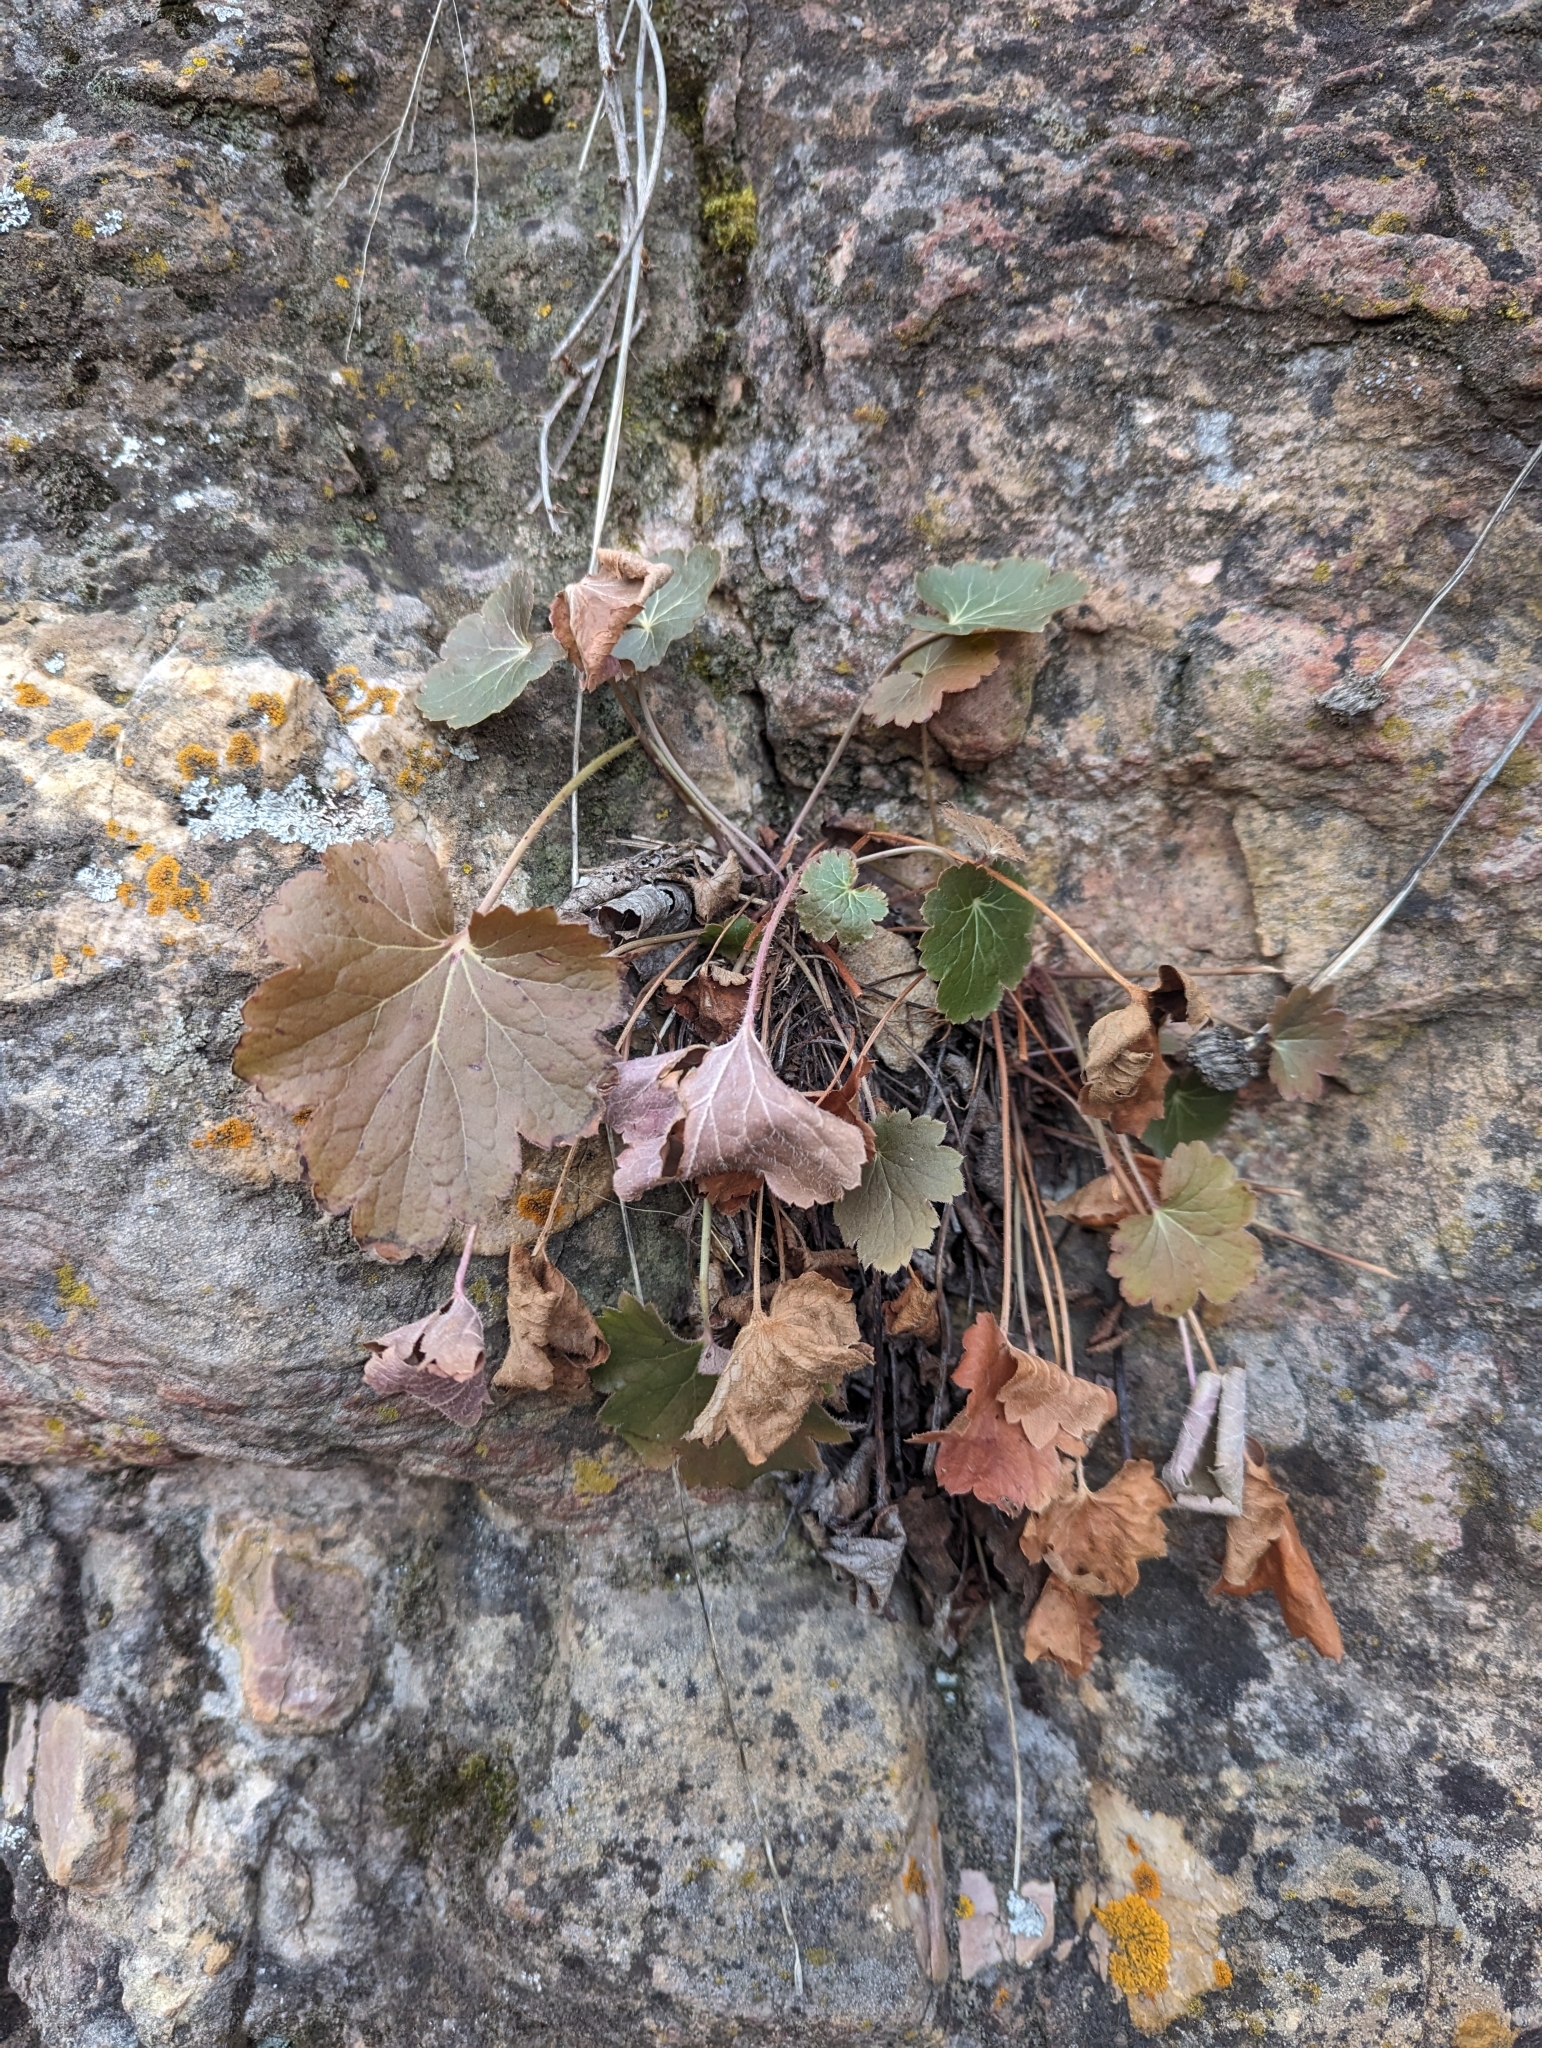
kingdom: Plantae
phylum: Tracheophyta
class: Magnoliopsida
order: Saxifragales
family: Saxifragaceae
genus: Heuchera
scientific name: Heuchera richardsonii
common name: Richardson's alumroot
